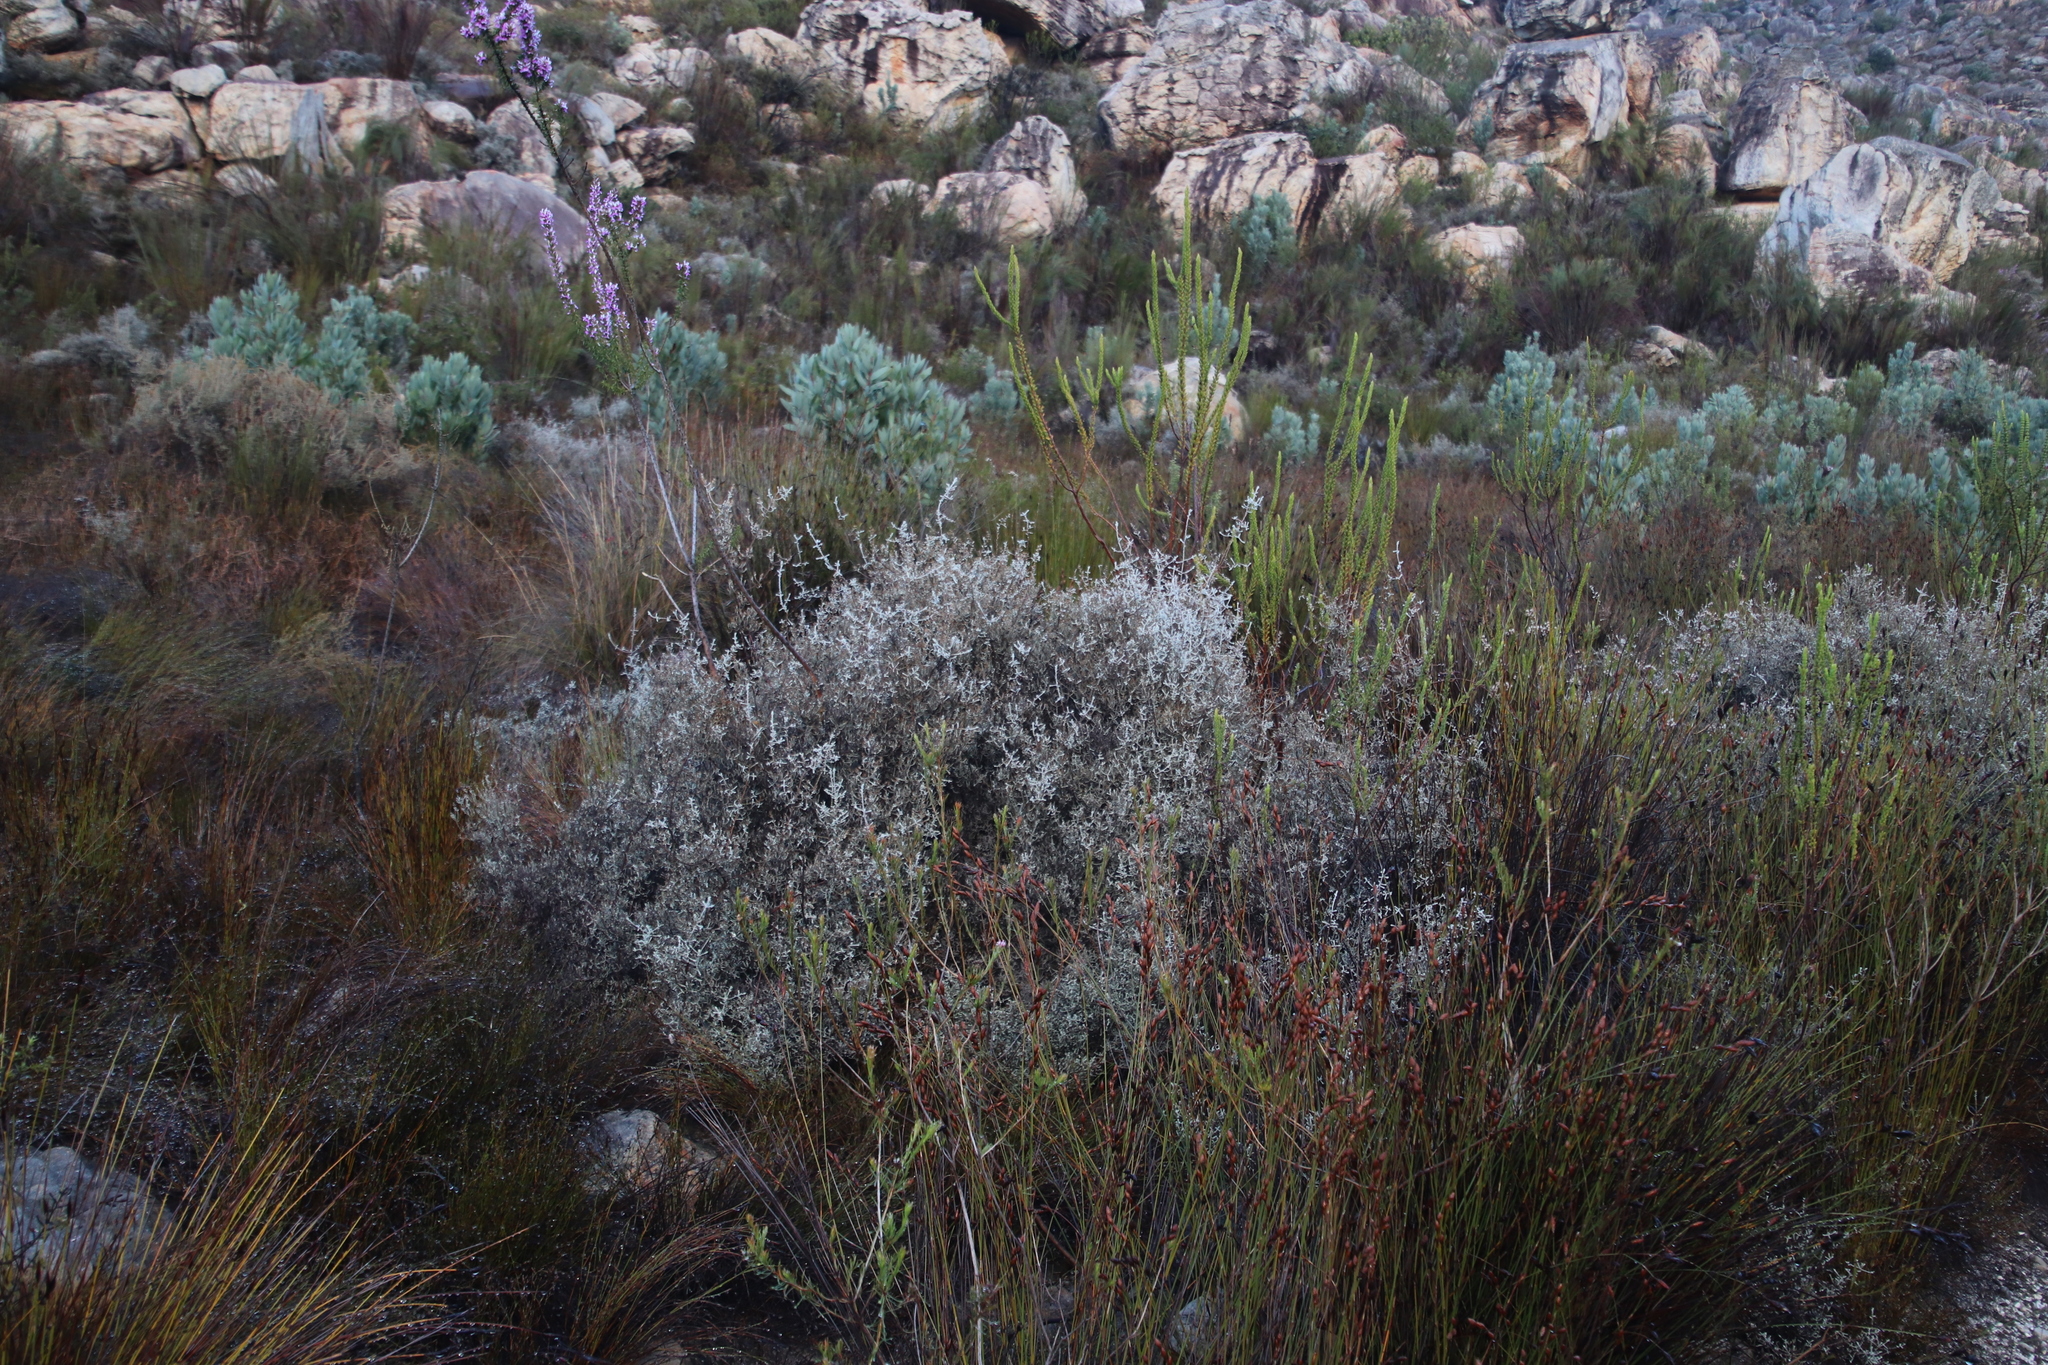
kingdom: Plantae
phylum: Tracheophyta
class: Magnoliopsida
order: Asterales
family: Asteraceae
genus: Seriphium
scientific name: Seriphium plumosum
